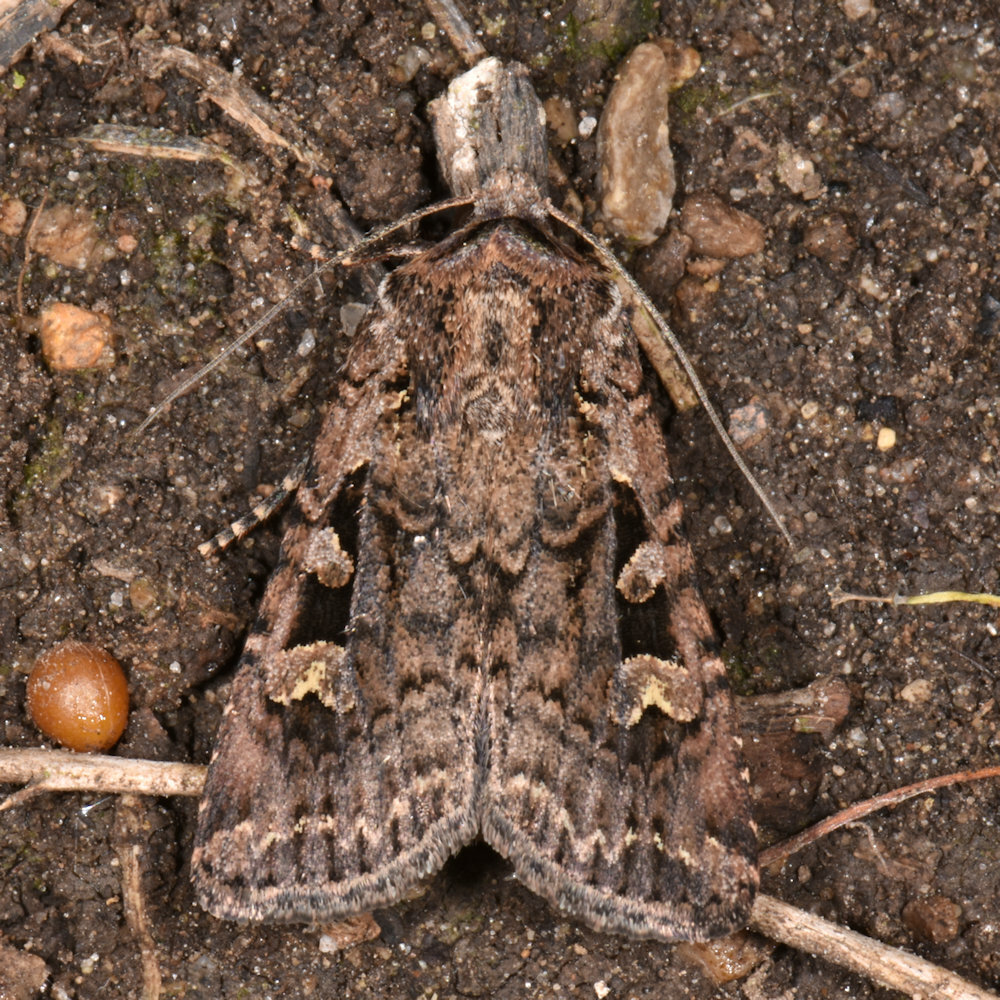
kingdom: Animalia
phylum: Arthropoda
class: Insecta
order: Lepidoptera
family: Noctuidae
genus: Euxoa
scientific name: Euxoa tessellata
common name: Striped cutworm
